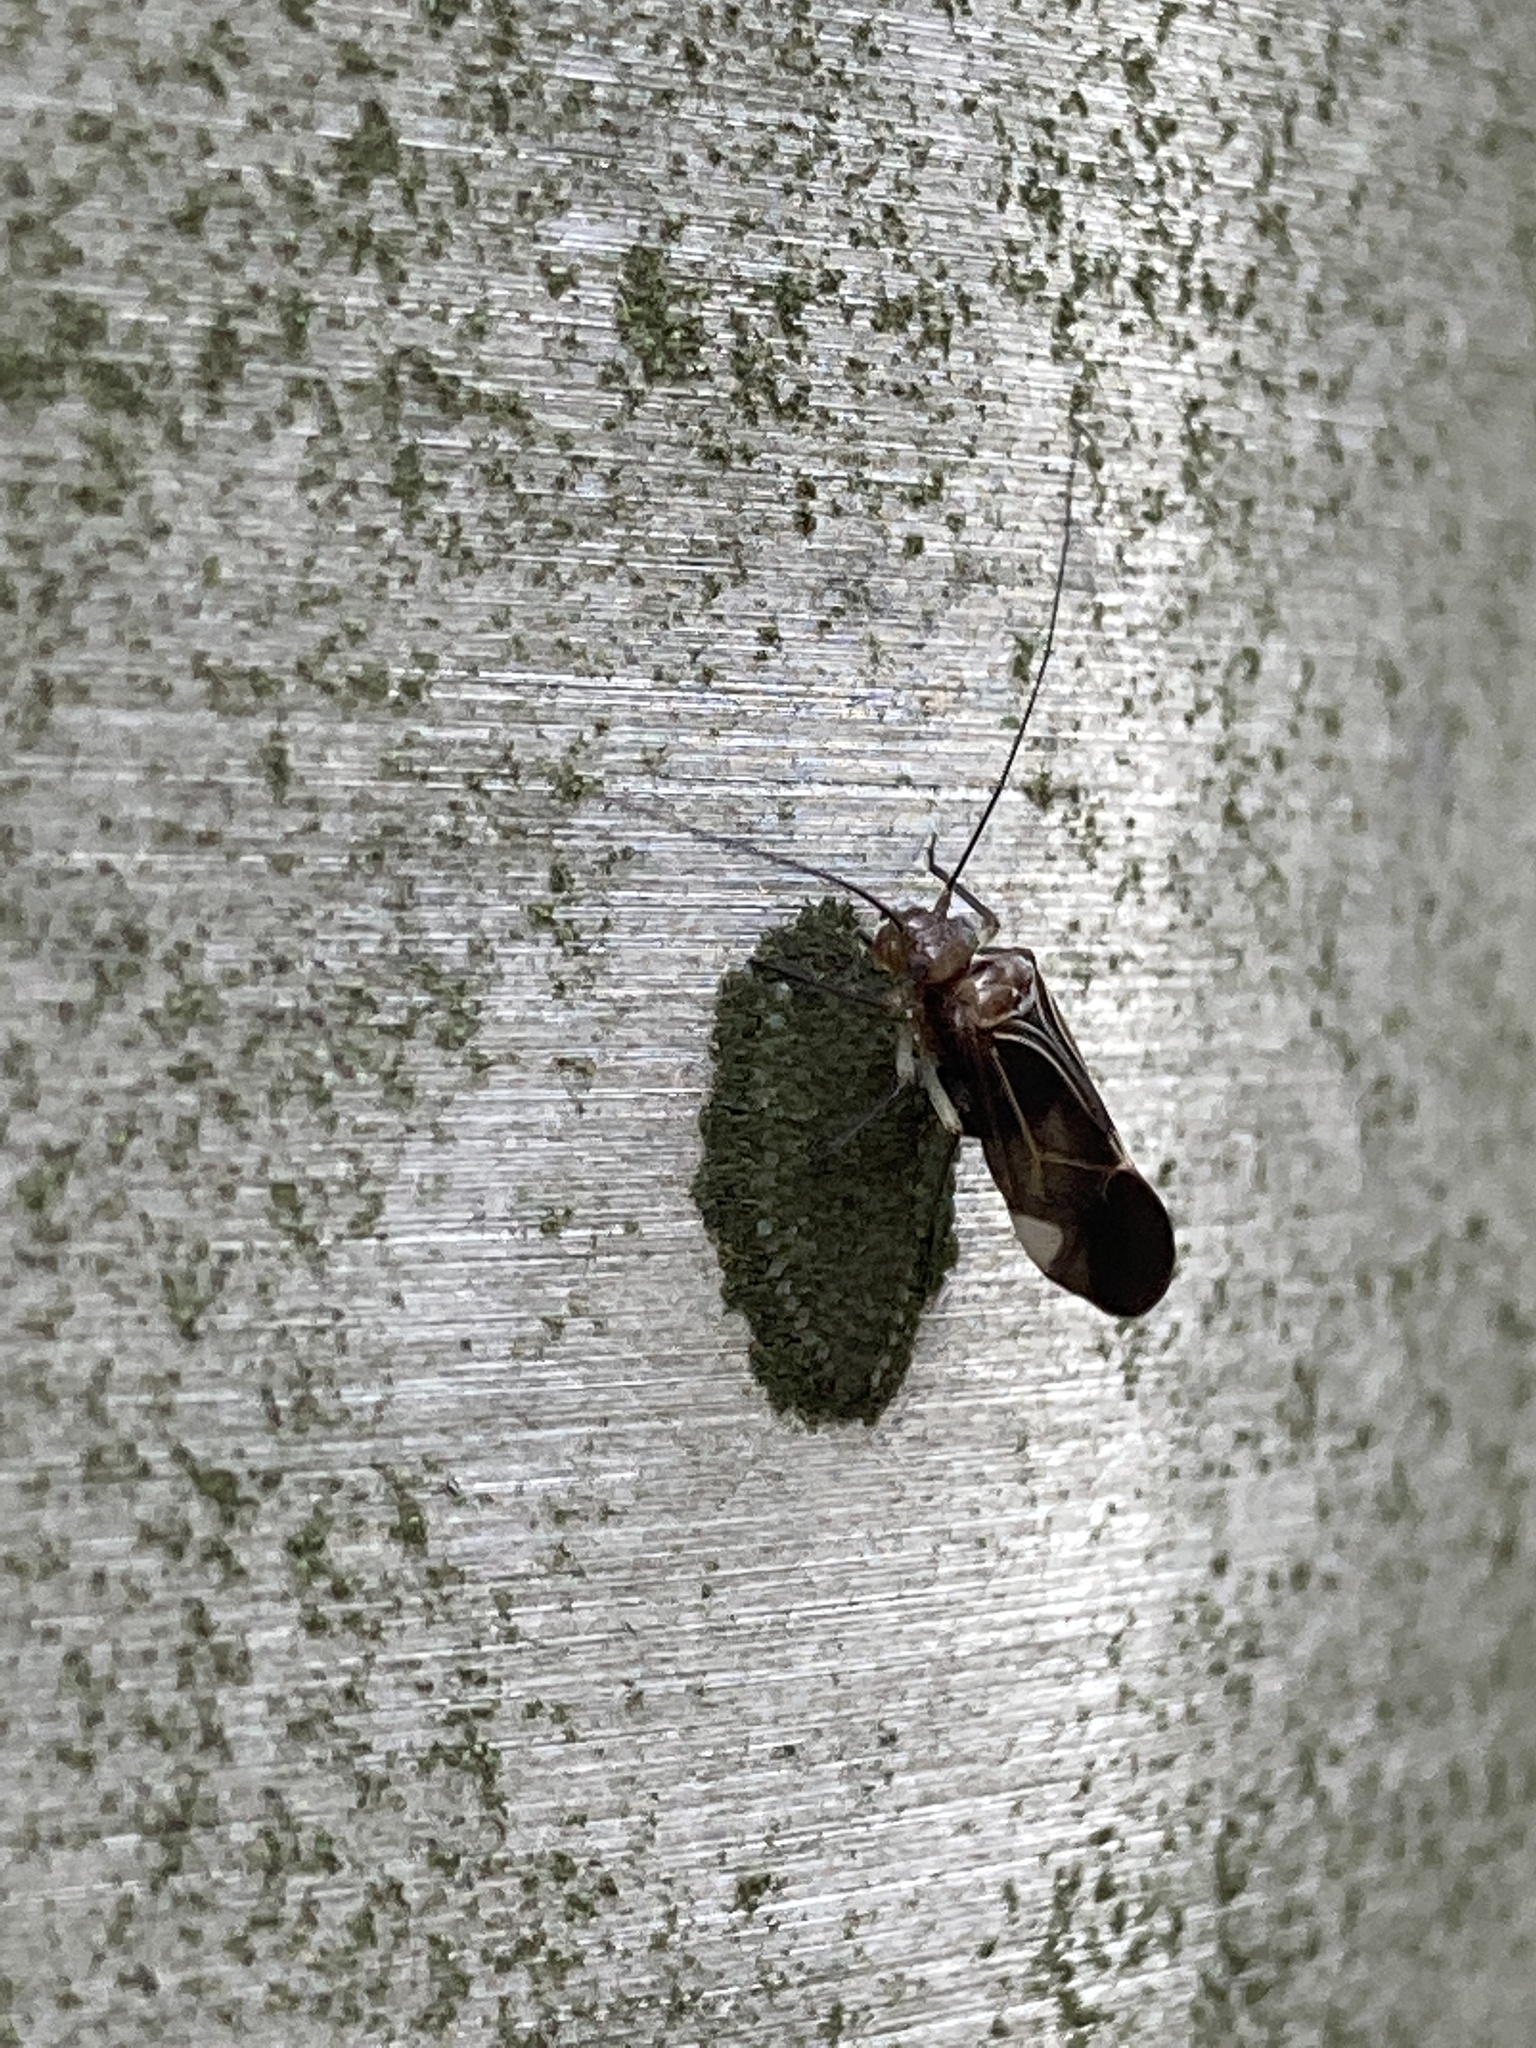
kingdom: Animalia
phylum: Arthropoda
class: Insecta
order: Psocodea
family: Psocidae
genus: Cerastipsocus
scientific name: Cerastipsocus venosus
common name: Tree cattle
